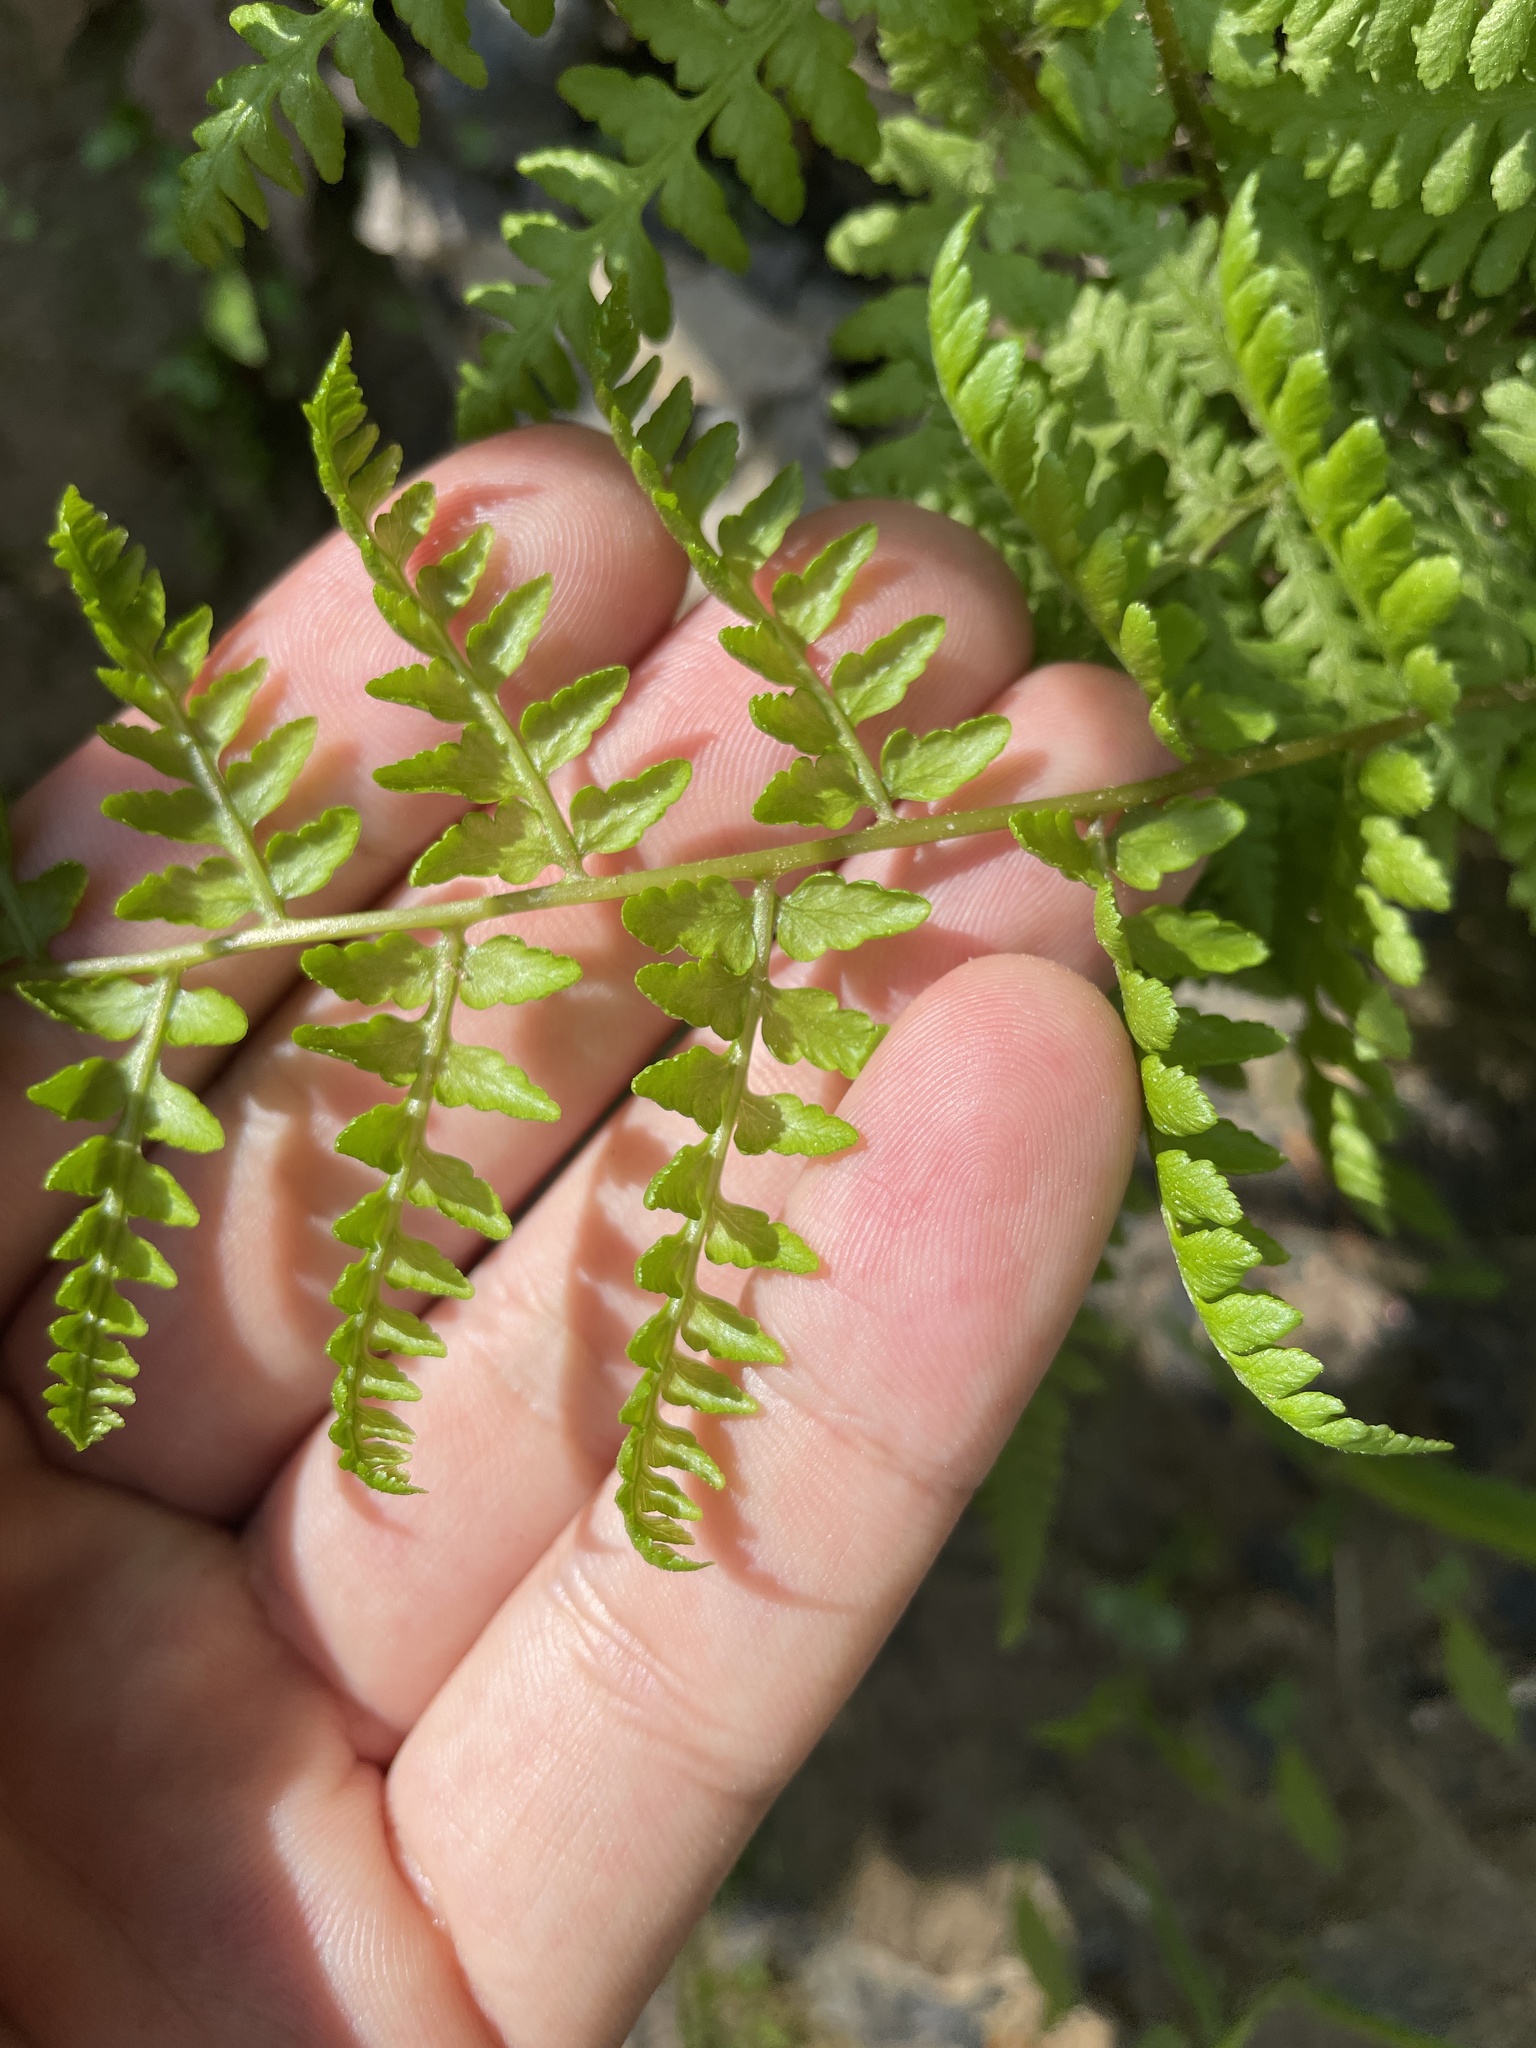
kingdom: Plantae
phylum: Tracheophyta
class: Polypodiopsida
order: Polypodiales
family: Athyriaceae
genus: Athyrium
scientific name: Athyrium asplenioides
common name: Southern lady fern
